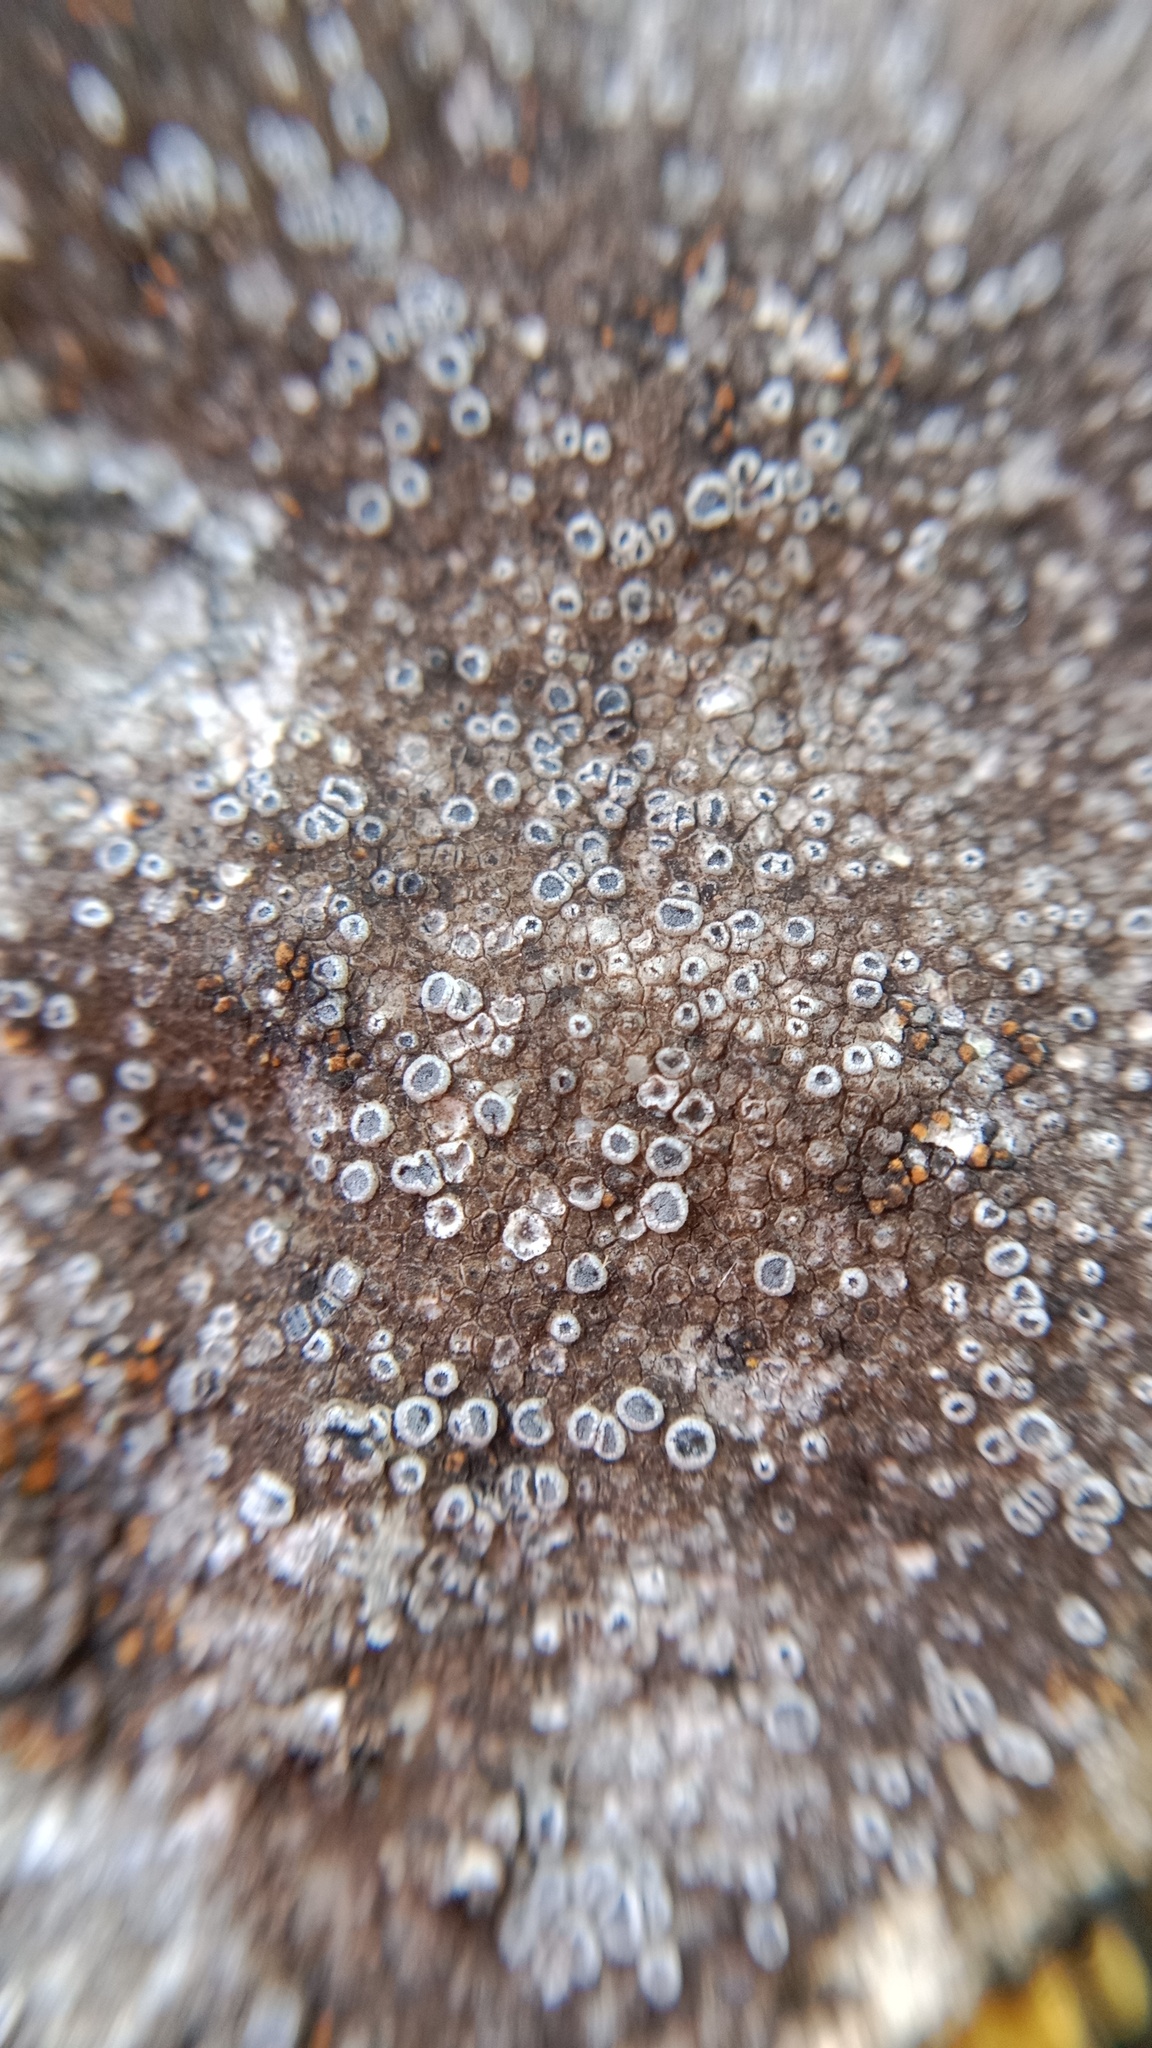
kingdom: Fungi
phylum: Ascomycota
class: Lecanoromycetes
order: Teloschistales
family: Teloschistaceae
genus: Pyrenodesmia
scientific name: Pyrenodesmia variabilis
